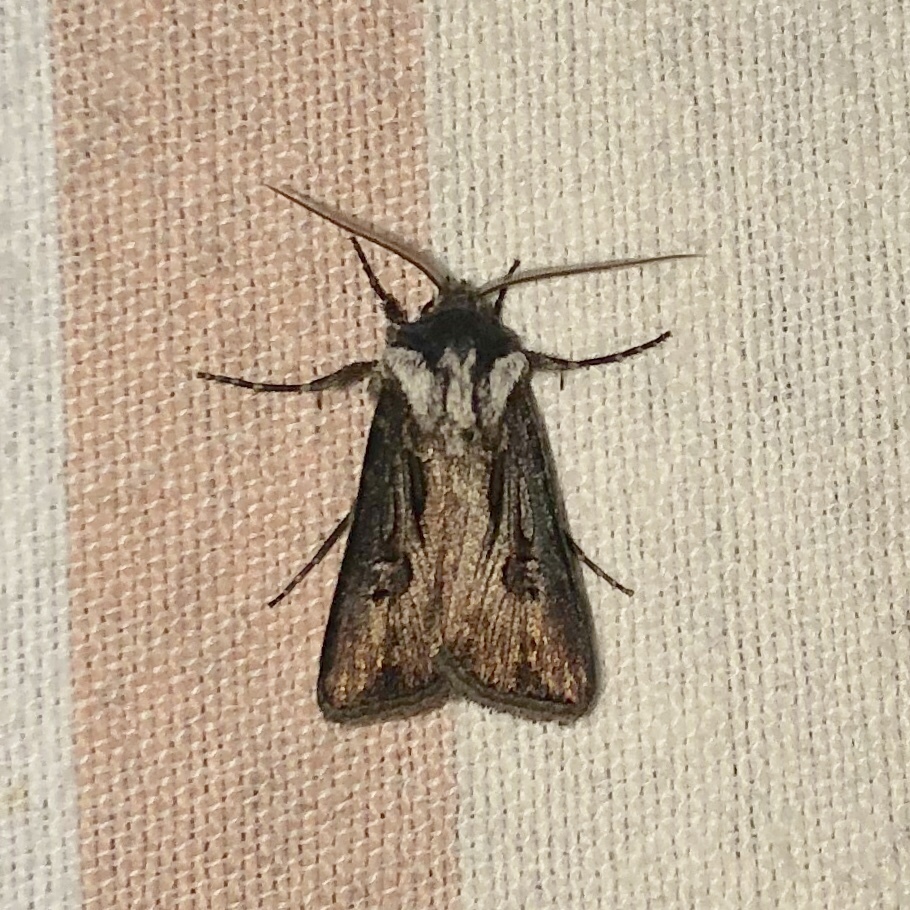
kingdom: Animalia
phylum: Arthropoda
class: Insecta
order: Lepidoptera
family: Noctuidae
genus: Agrotis
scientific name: Agrotis venerabilis
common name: Venerable dart
